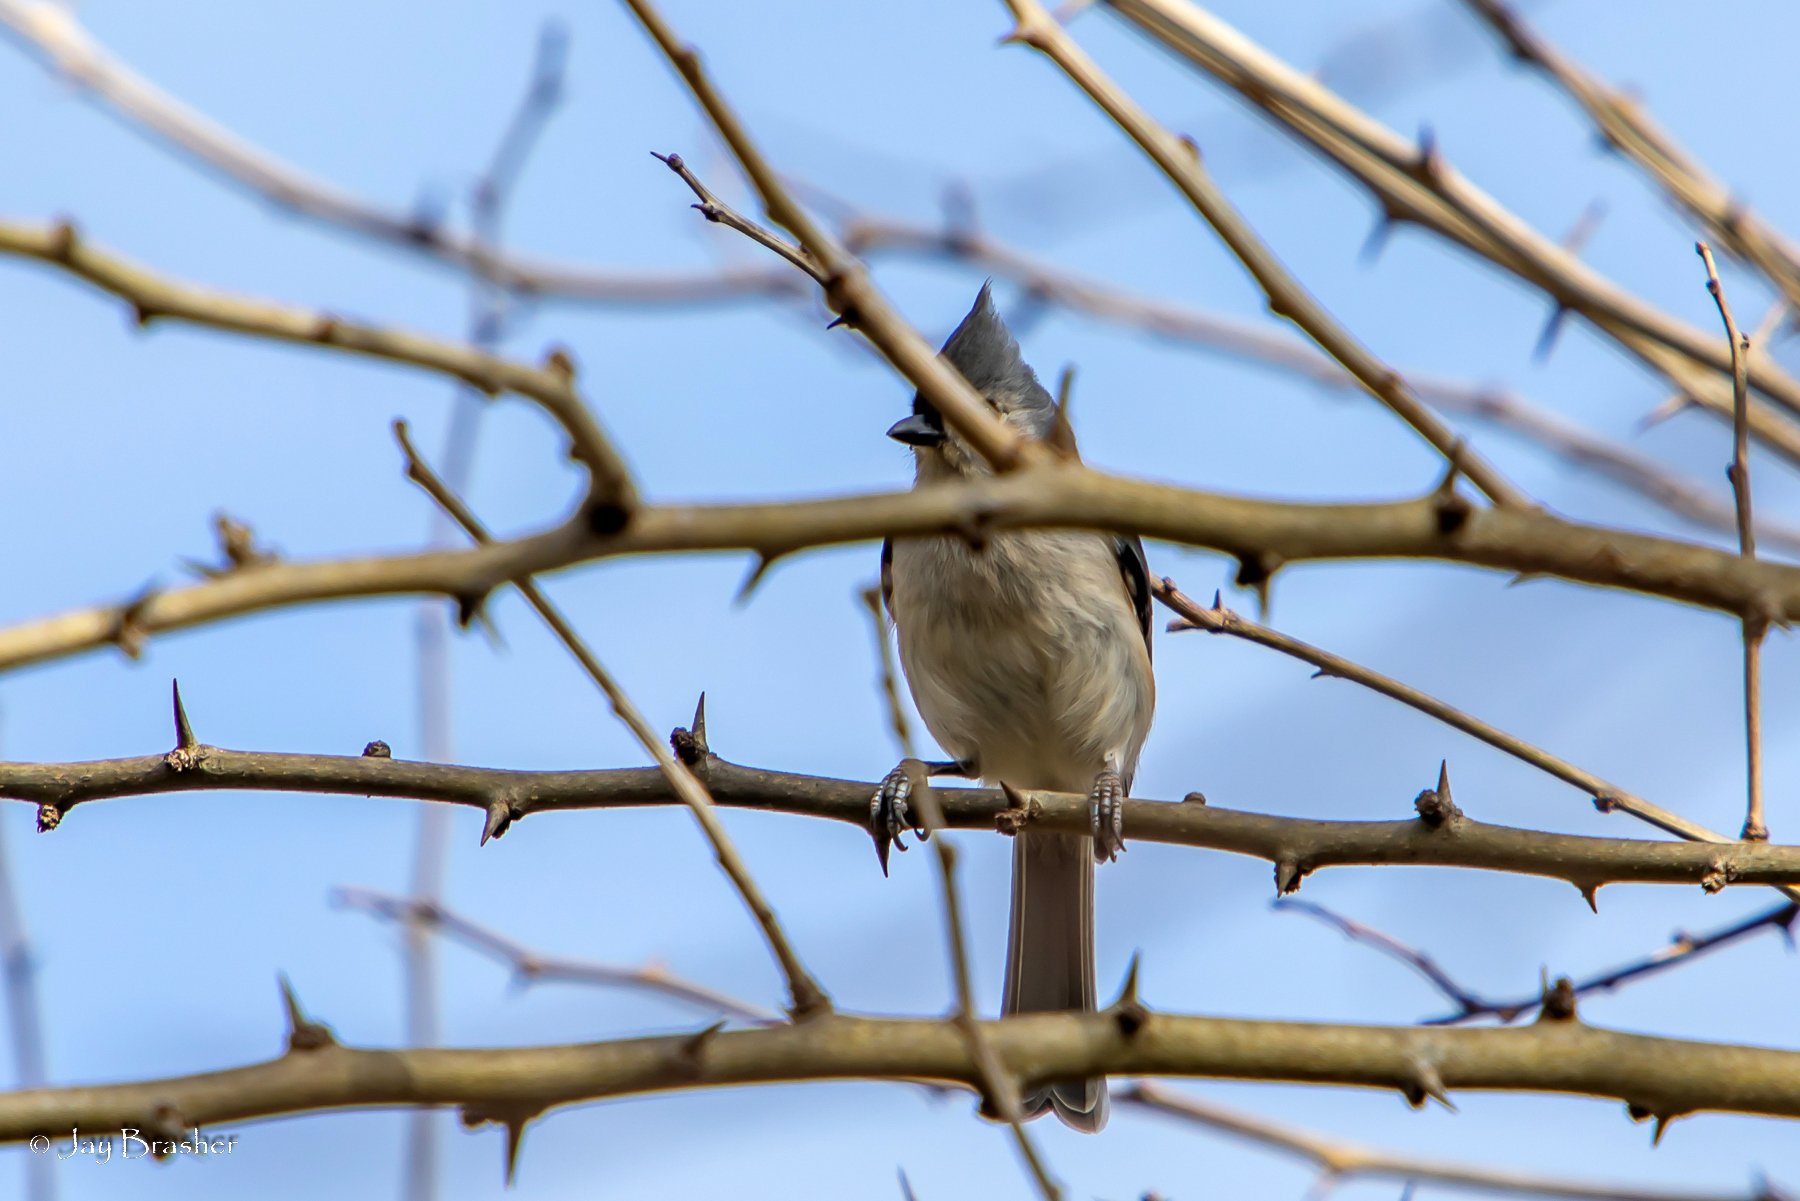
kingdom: Animalia
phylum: Chordata
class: Aves
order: Passeriformes
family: Paridae
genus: Baeolophus
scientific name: Baeolophus bicolor
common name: Tufted titmouse
